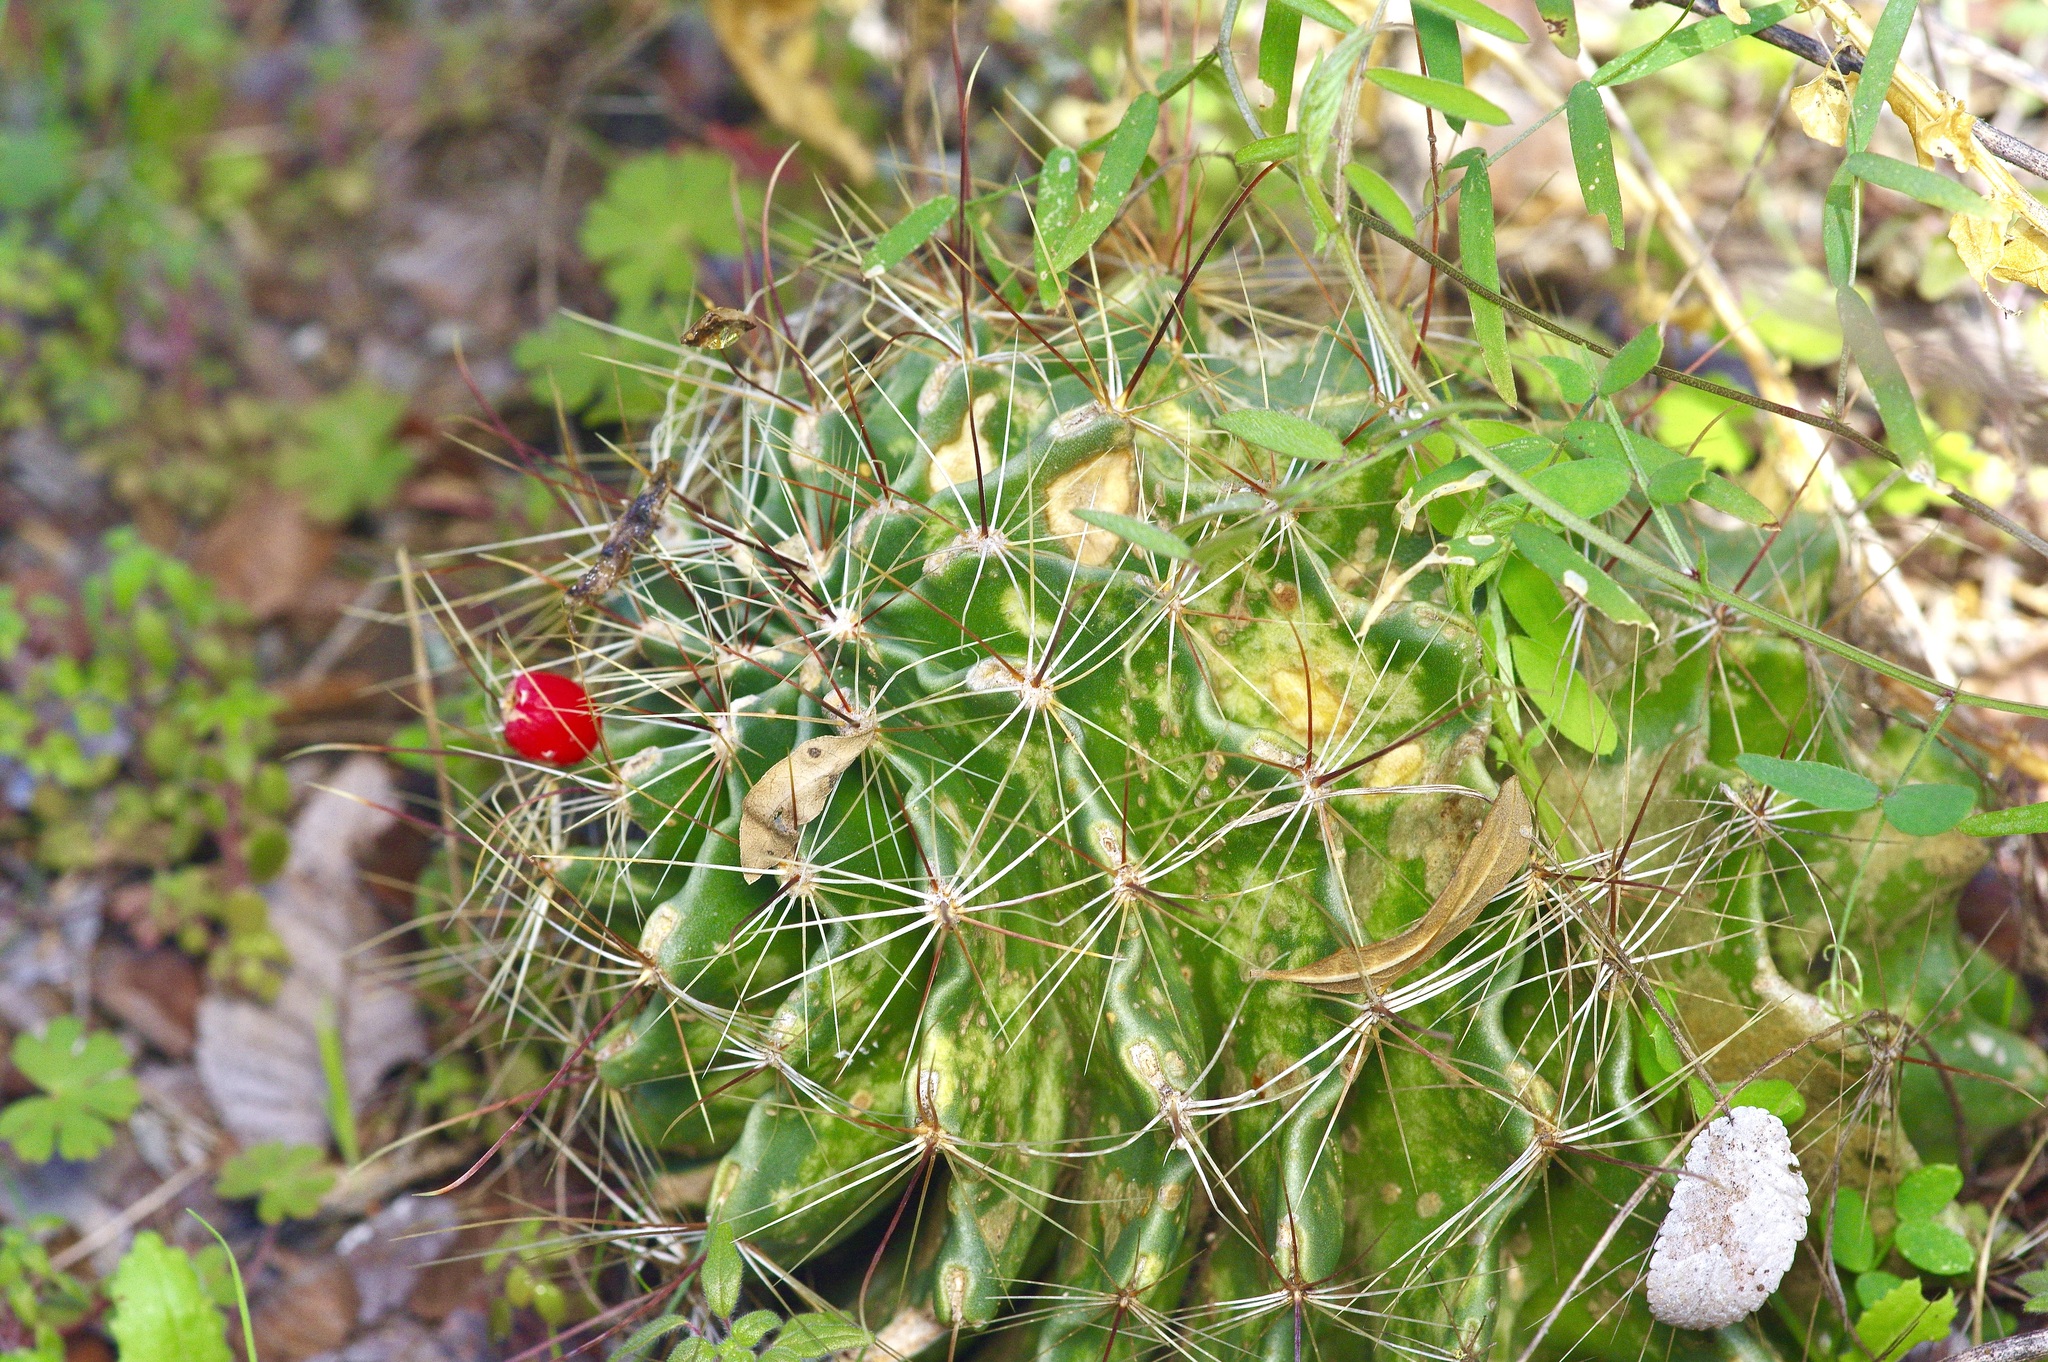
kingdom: Plantae
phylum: Tracheophyta
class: Magnoliopsida
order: Caryophyllales
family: Cactaceae
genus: Thelocactus
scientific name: Thelocactus setispinus
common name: Miniature barrel cactus
